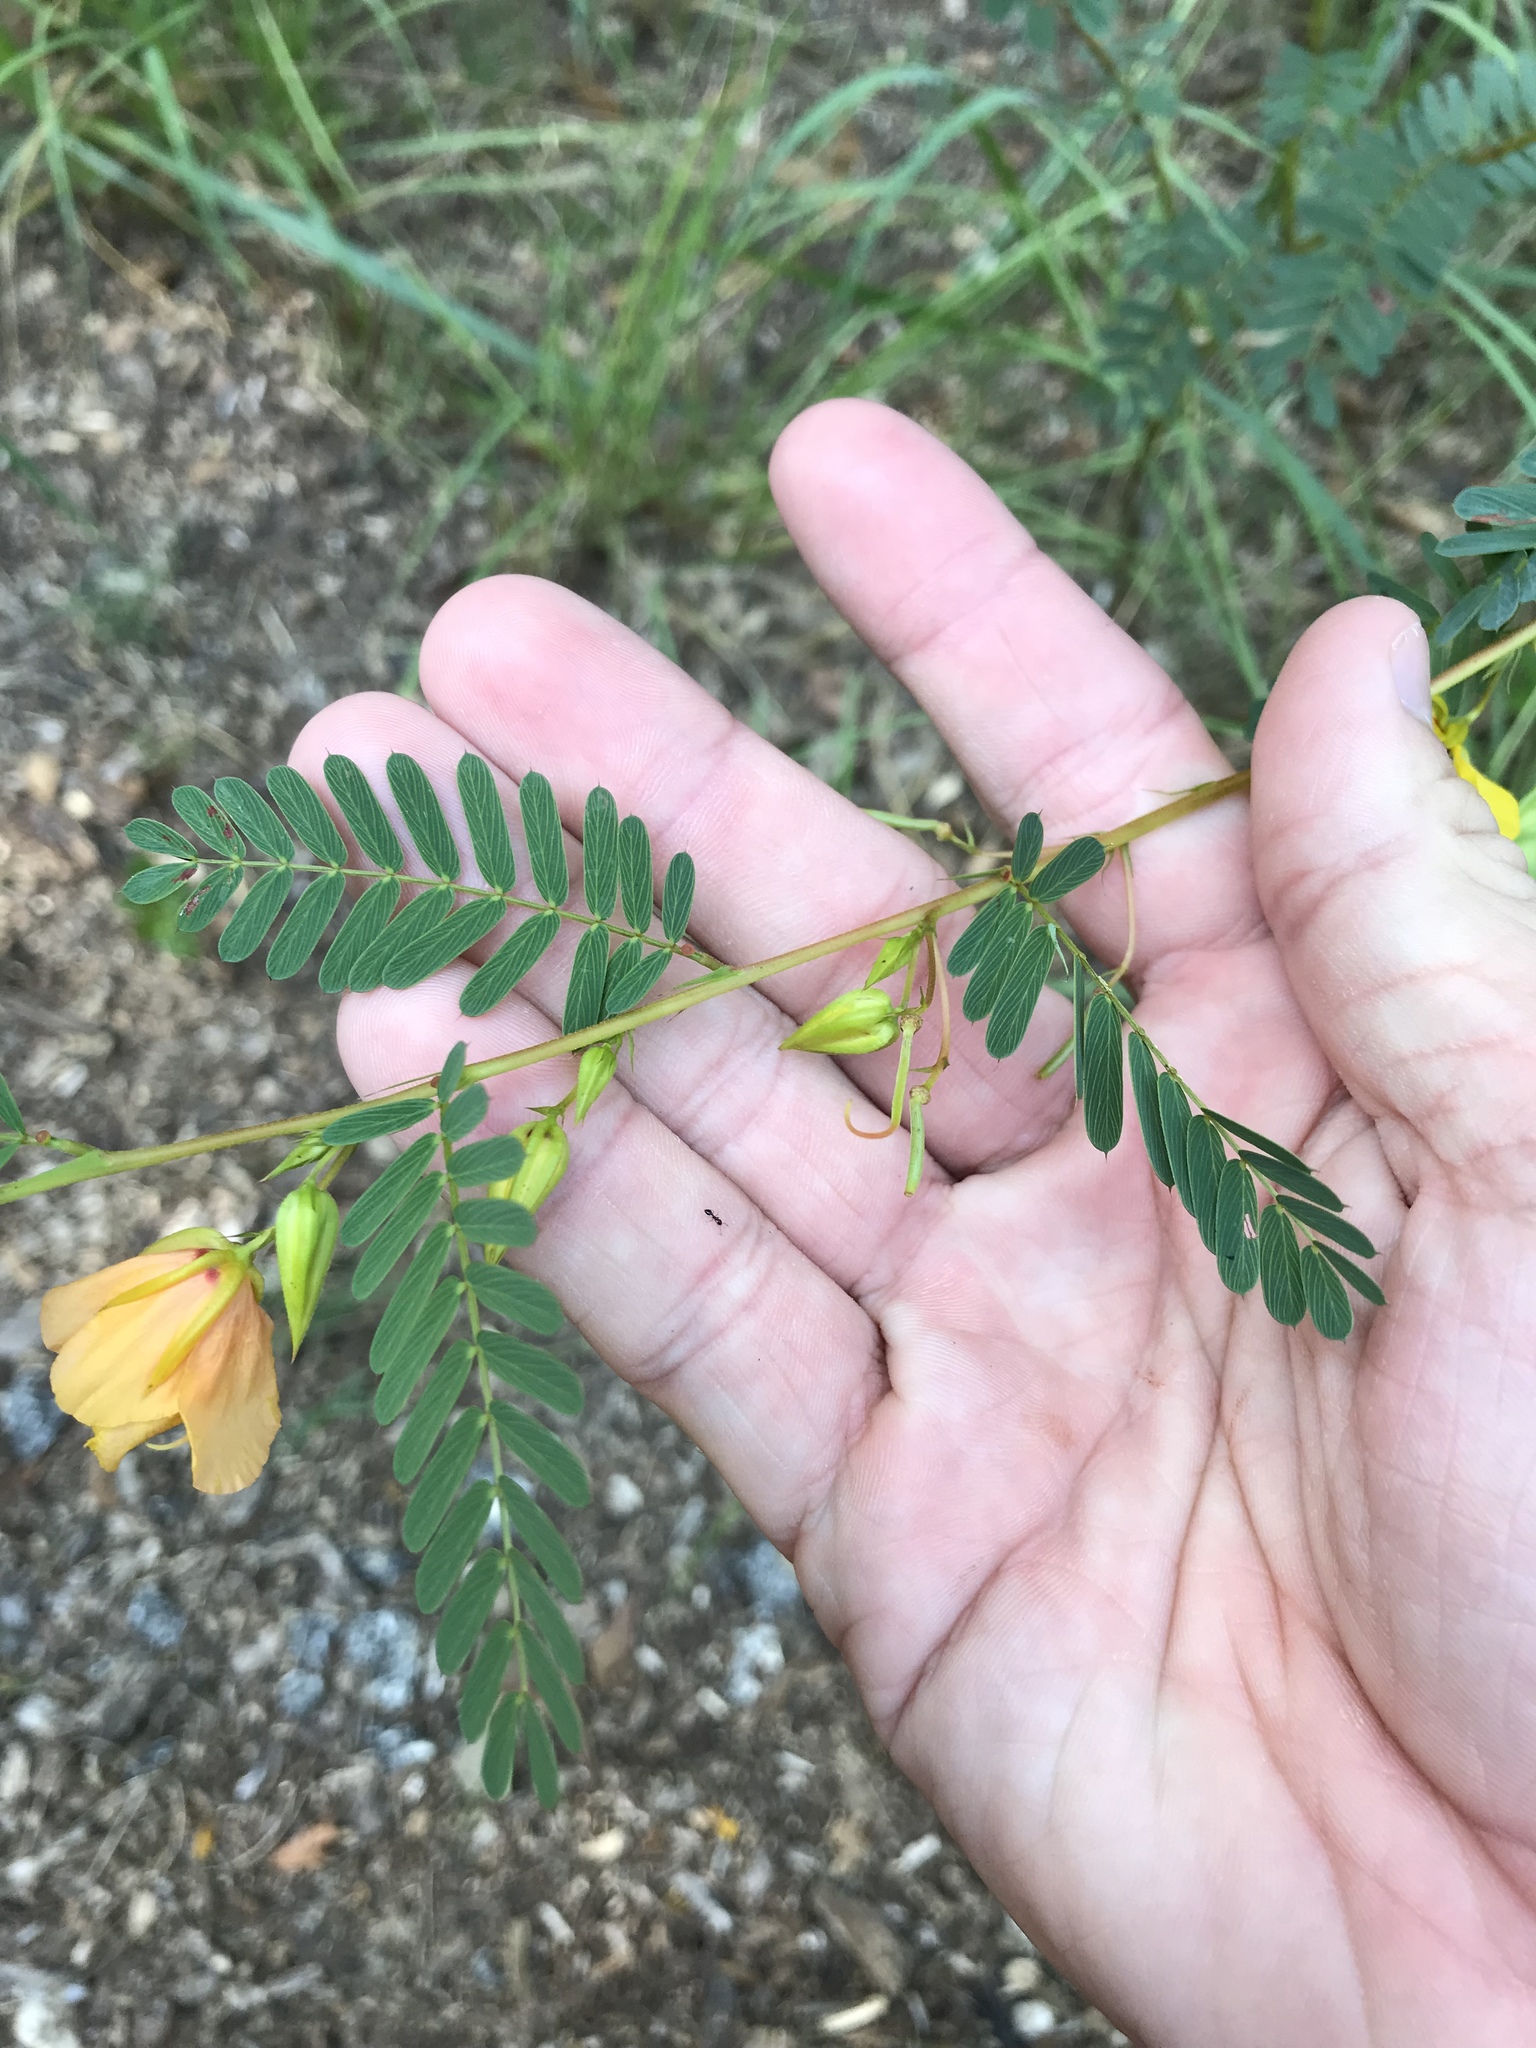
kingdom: Plantae
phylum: Tracheophyta
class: Magnoliopsida
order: Fabales
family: Fabaceae
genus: Chamaecrista
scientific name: Chamaecrista fasciculata
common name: Golden cassia
